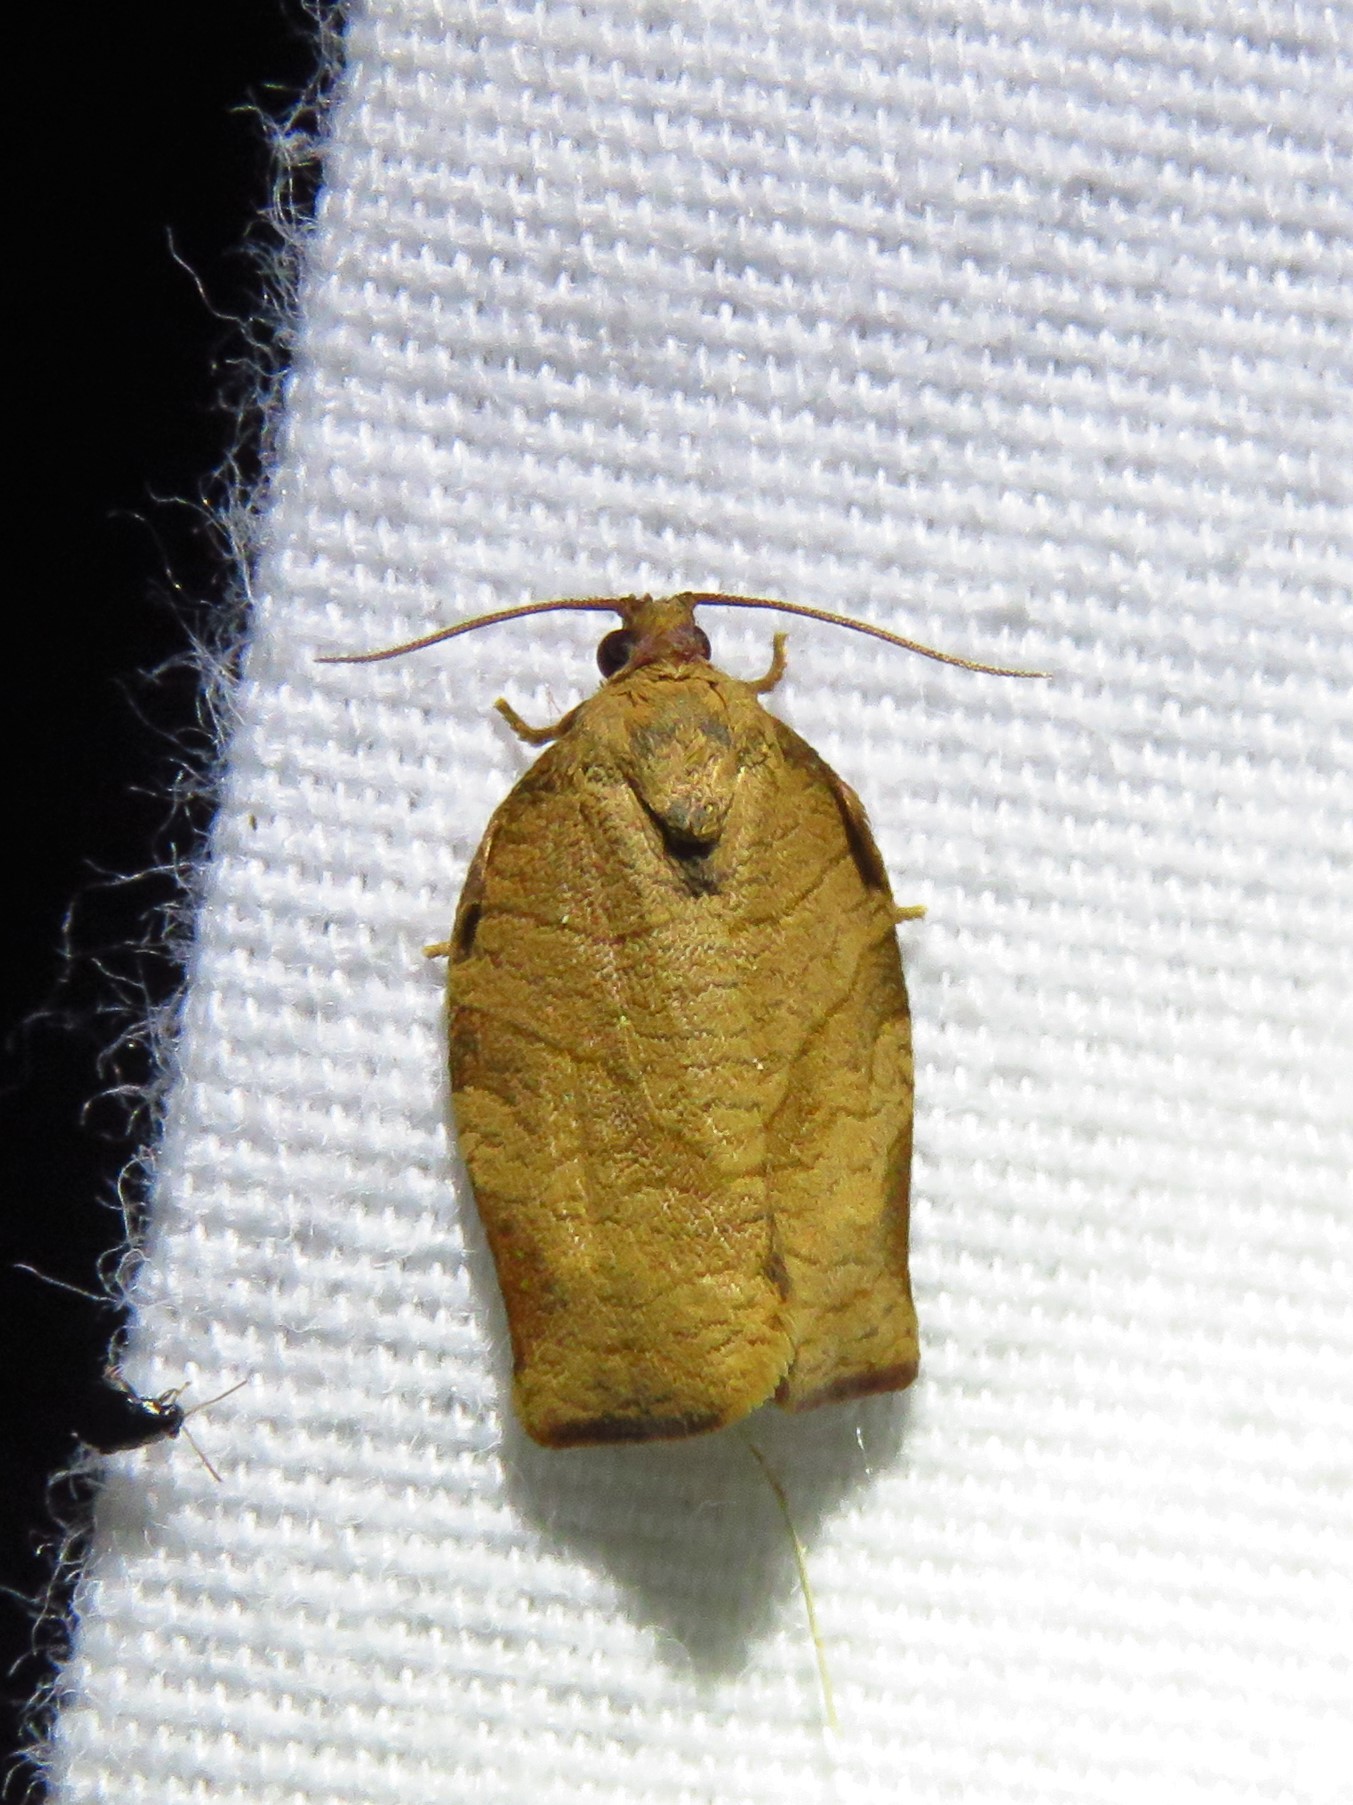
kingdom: Animalia
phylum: Arthropoda
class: Insecta
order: Lepidoptera
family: Tortricidae
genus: Choristoneura
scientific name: Choristoneura rosaceana
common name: Oblique-banded leafroller moth
